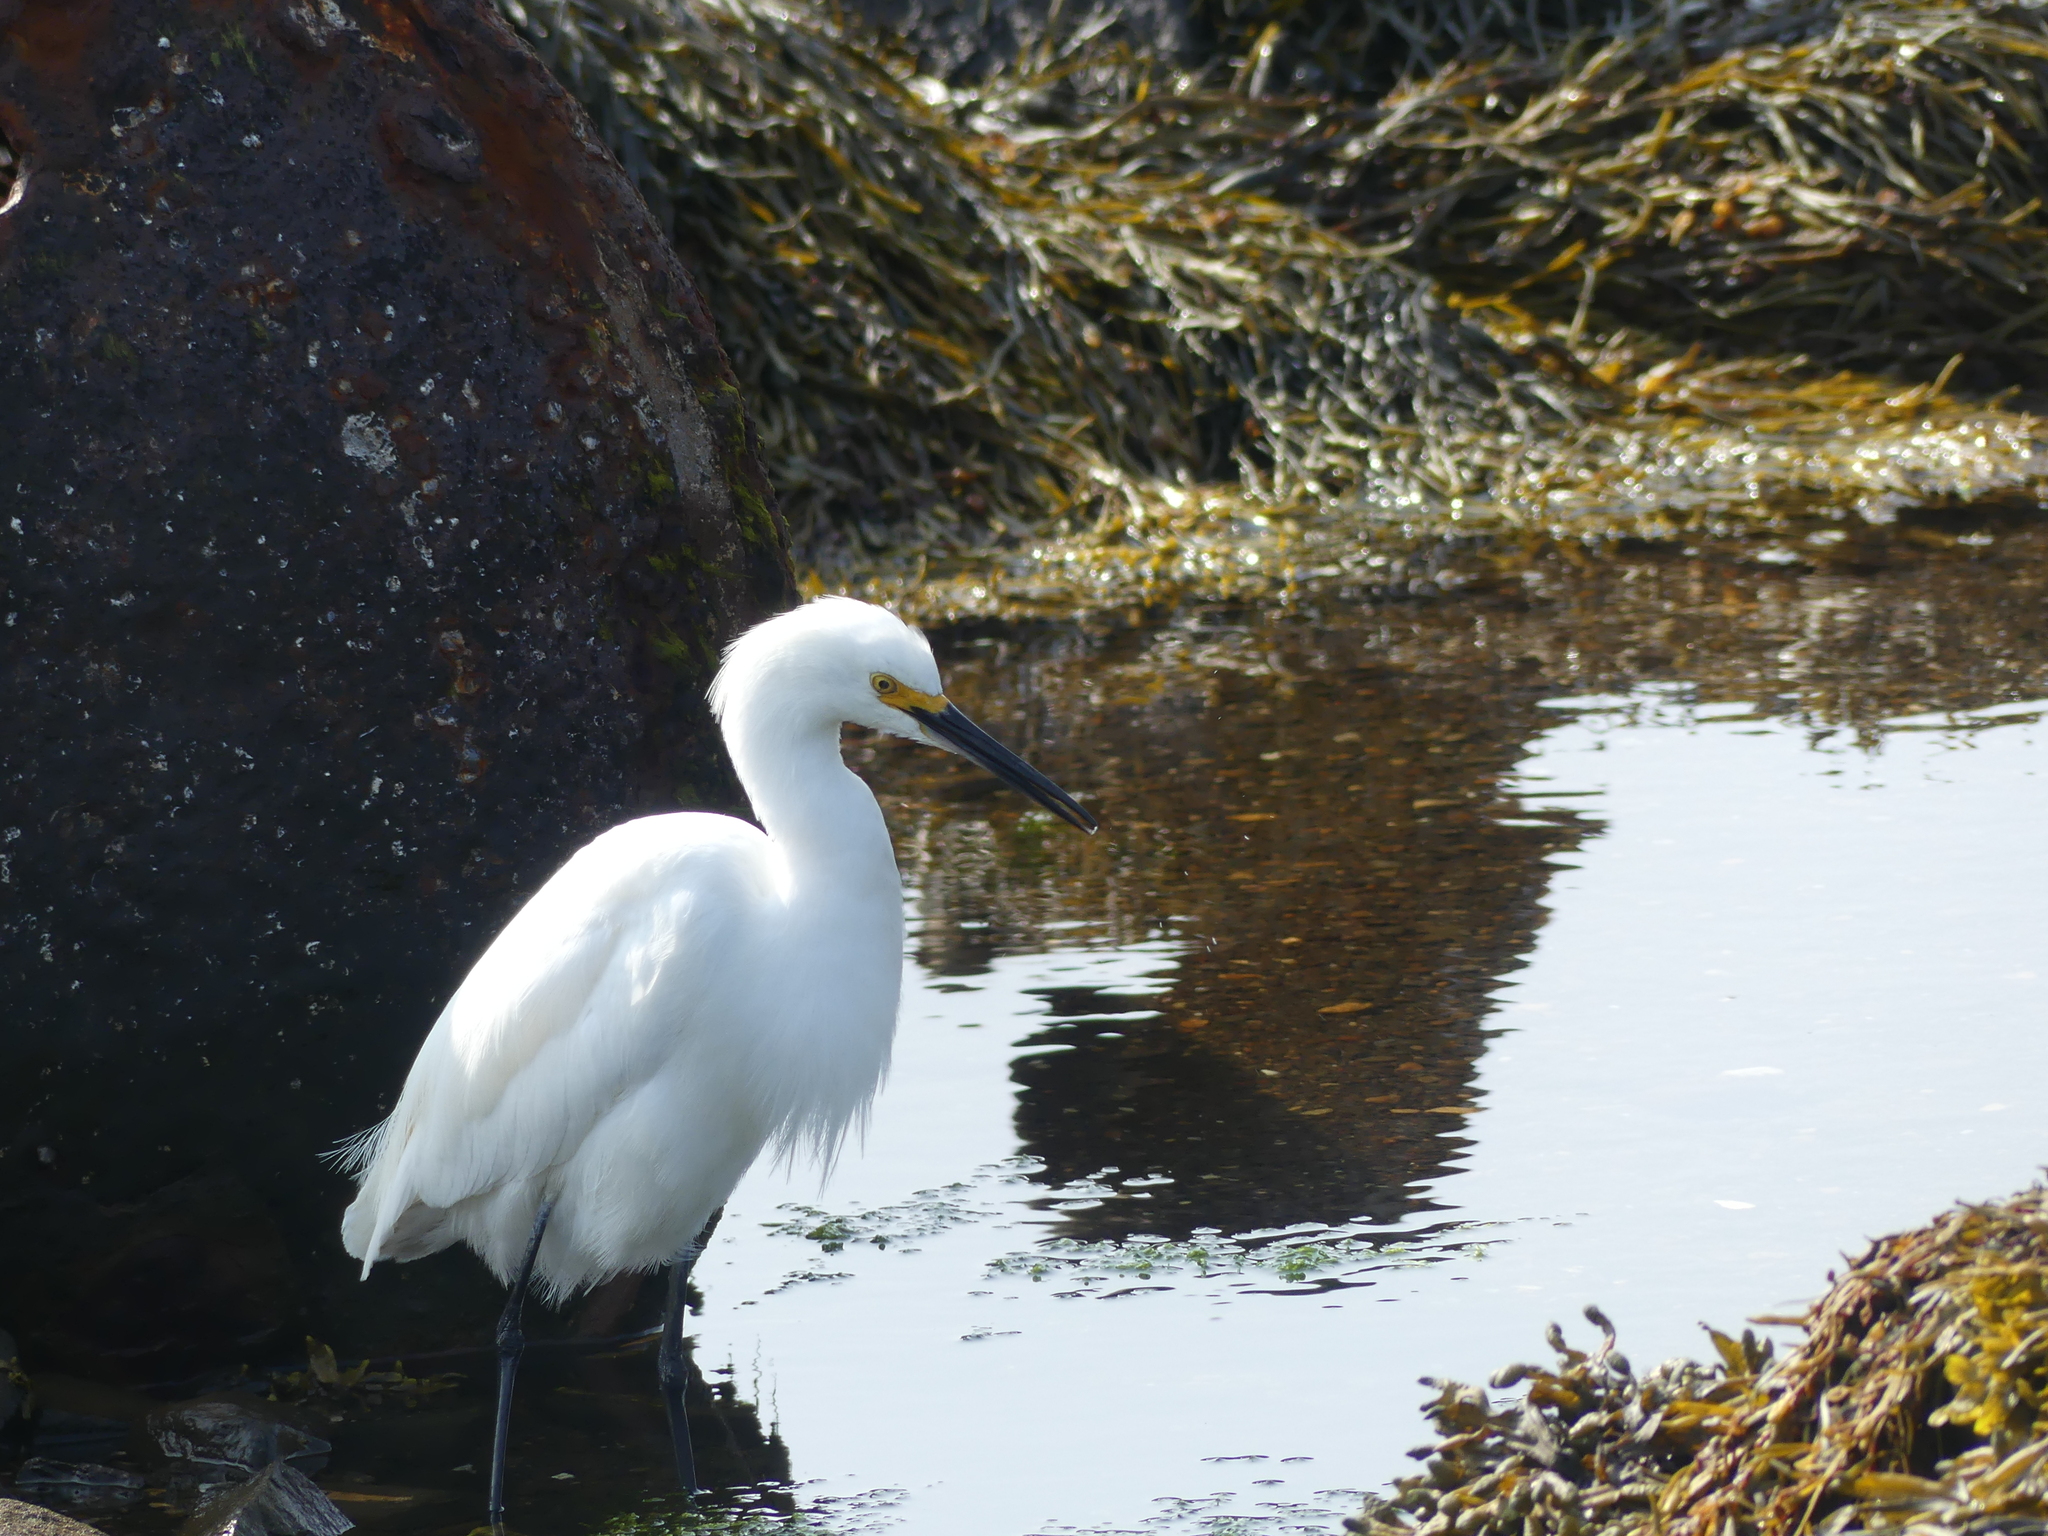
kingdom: Animalia
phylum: Chordata
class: Aves
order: Pelecaniformes
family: Ardeidae
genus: Egretta
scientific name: Egretta thula
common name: Snowy egret
